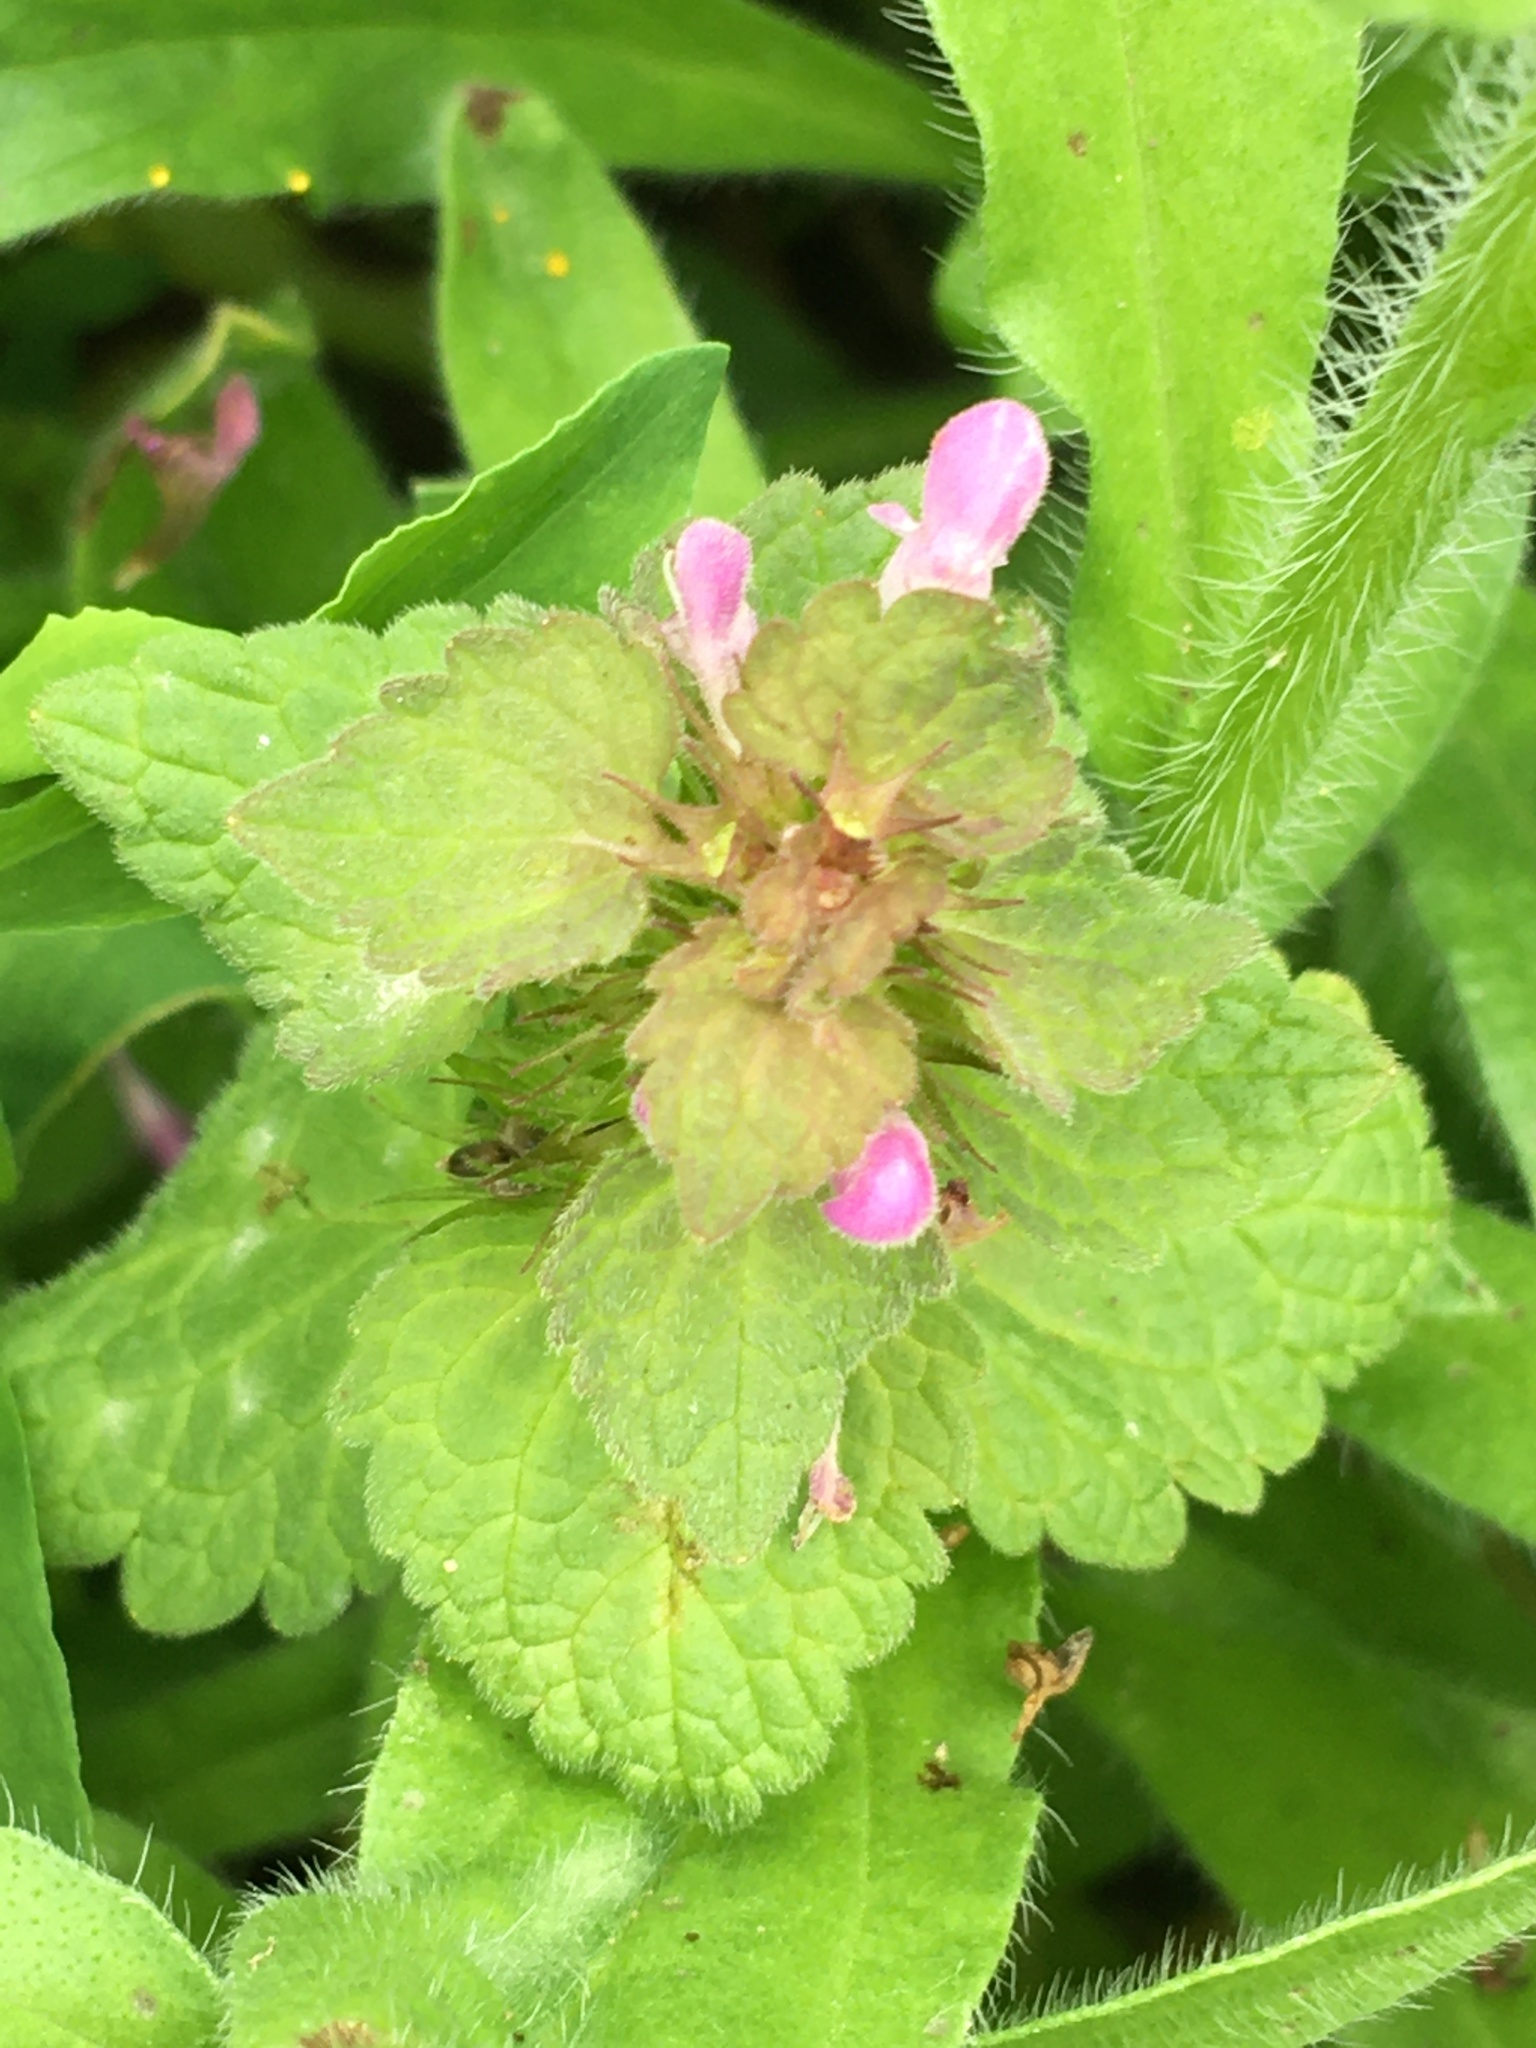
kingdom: Plantae
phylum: Tracheophyta
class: Magnoliopsida
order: Lamiales
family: Lamiaceae
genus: Lamium
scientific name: Lamium purpureum
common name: Red dead-nettle
